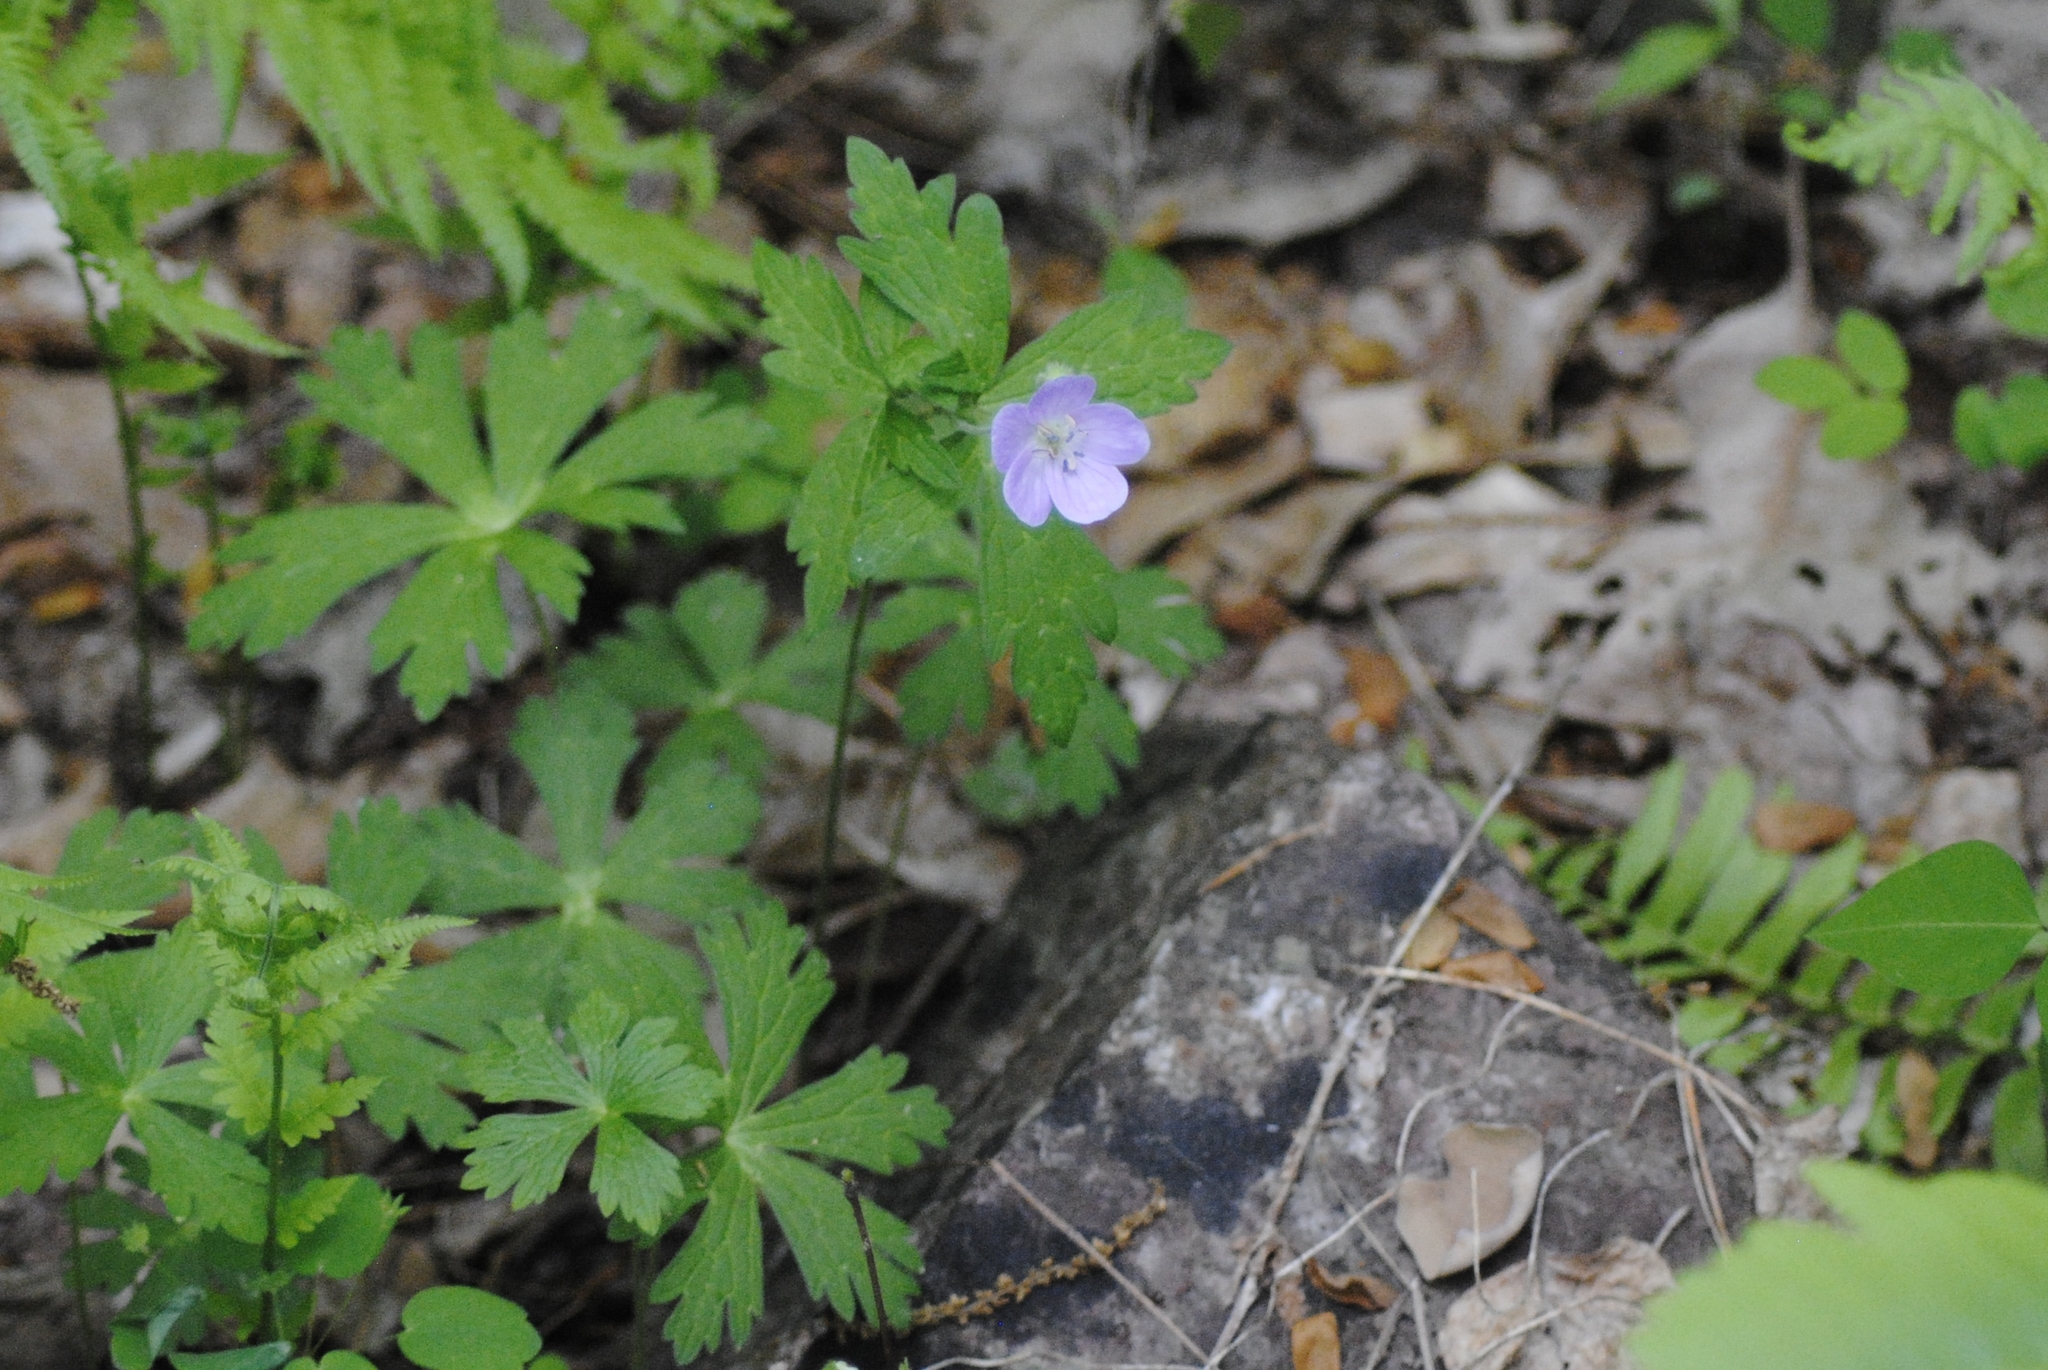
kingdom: Plantae
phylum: Tracheophyta
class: Magnoliopsida
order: Geraniales
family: Geraniaceae
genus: Geranium
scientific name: Geranium maculatum
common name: Spotted geranium
